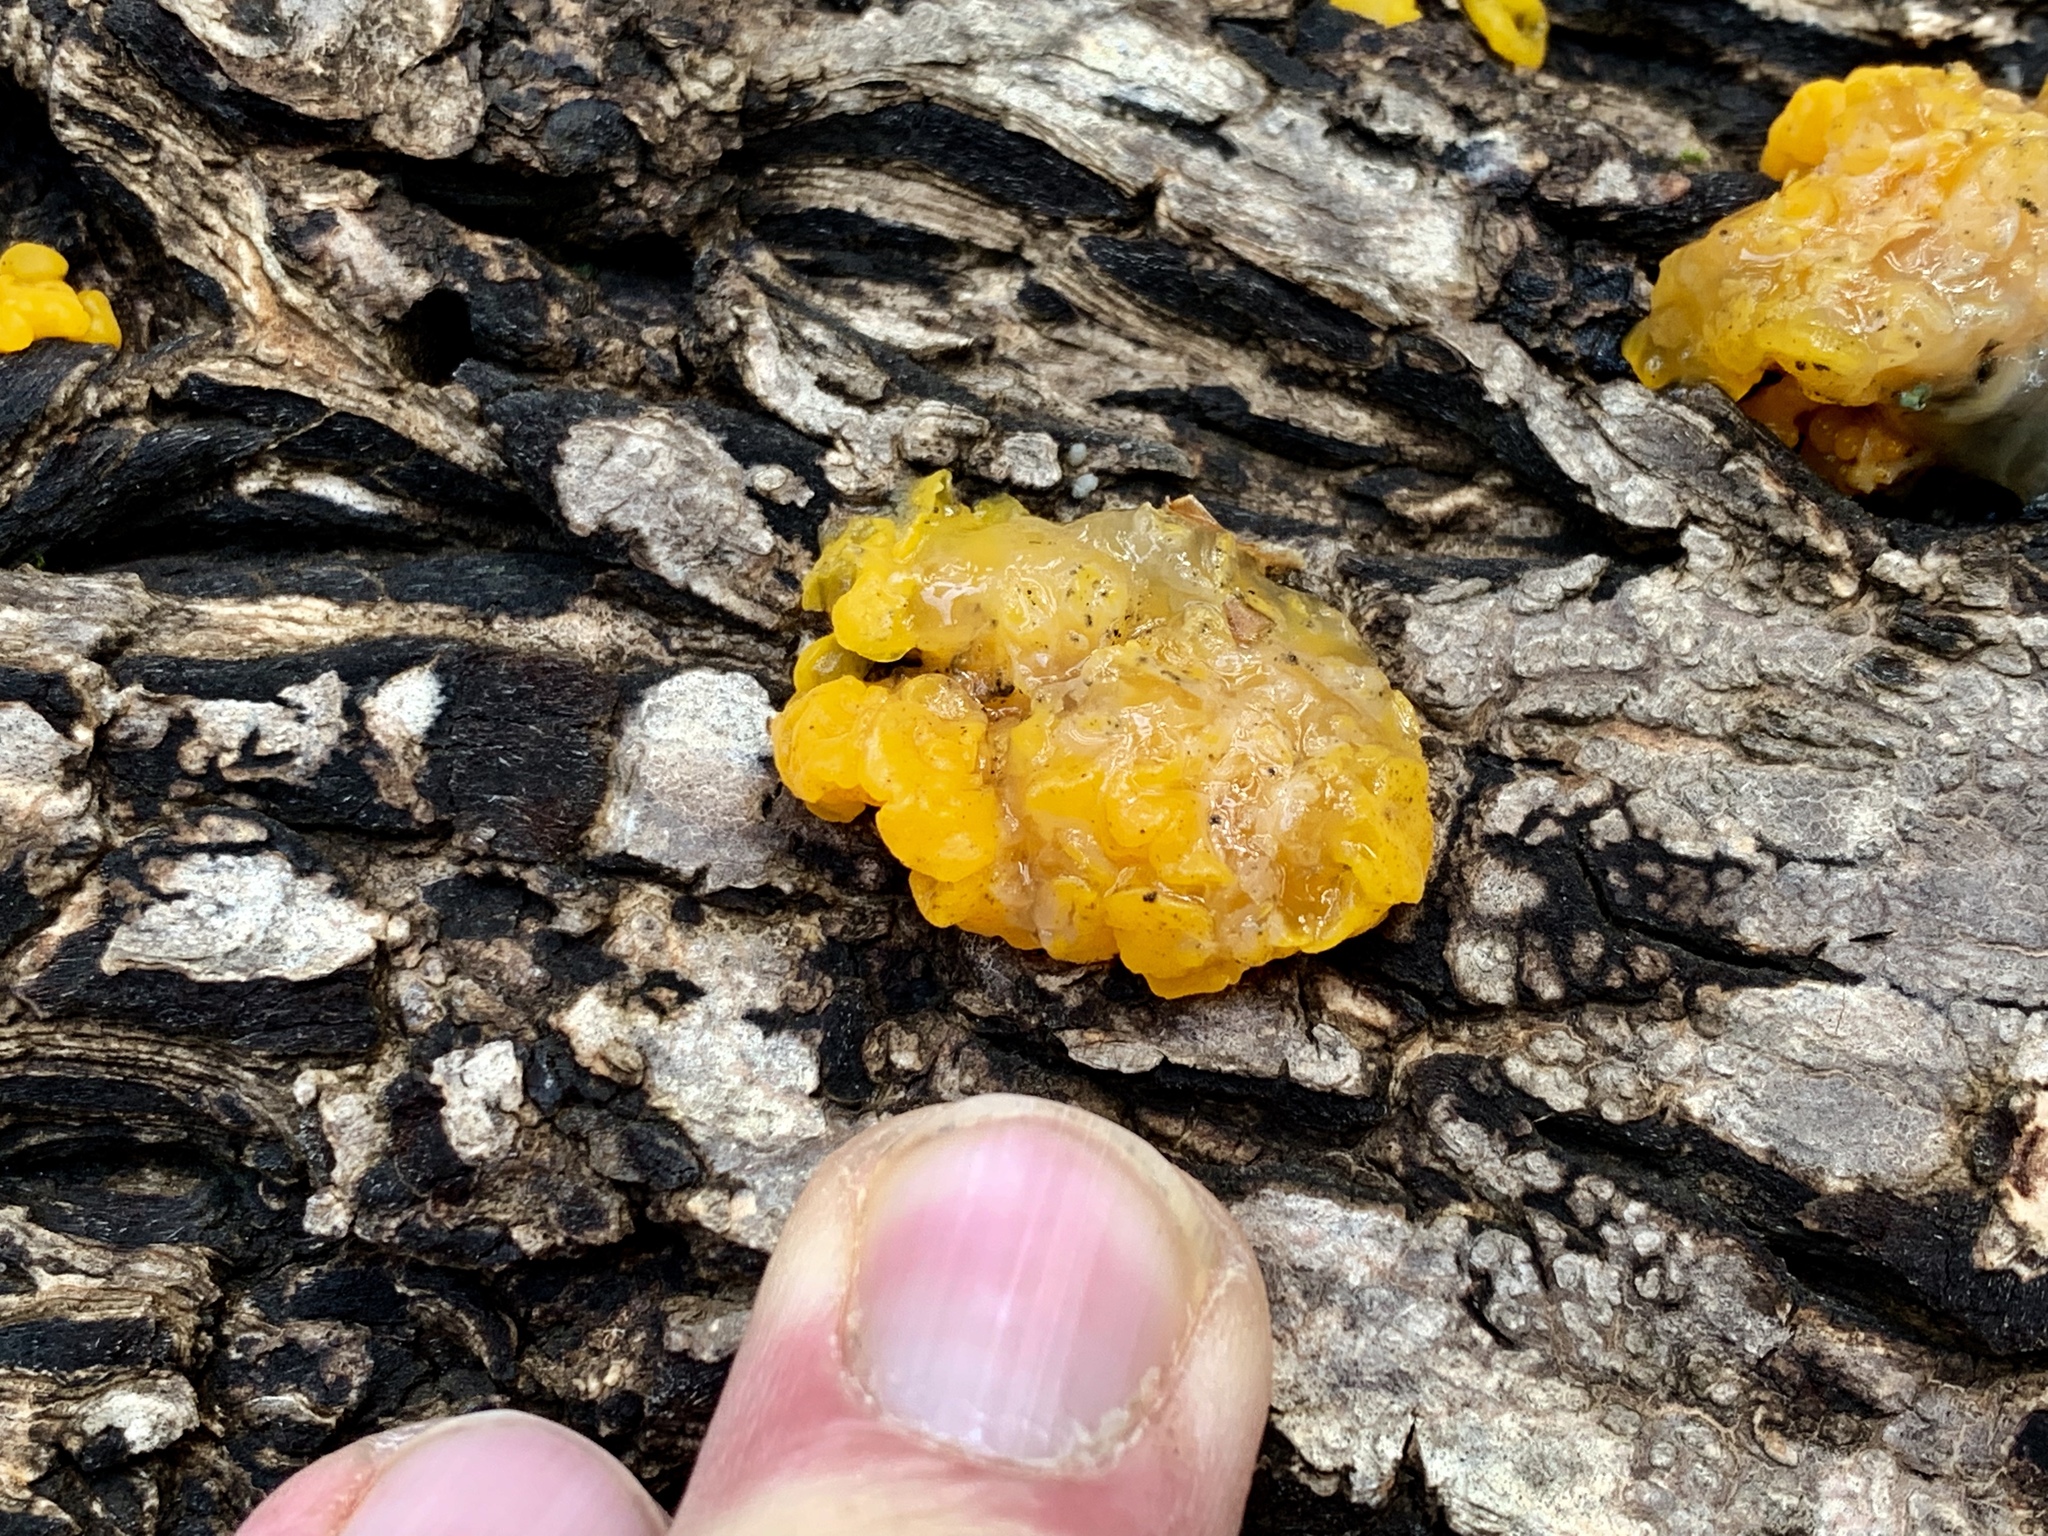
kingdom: Fungi
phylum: Basidiomycota
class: Tremellomycetes
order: Tremellales
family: Naemateliaceae
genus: Naematelia
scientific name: Naematelia aurantia
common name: Golden ear
